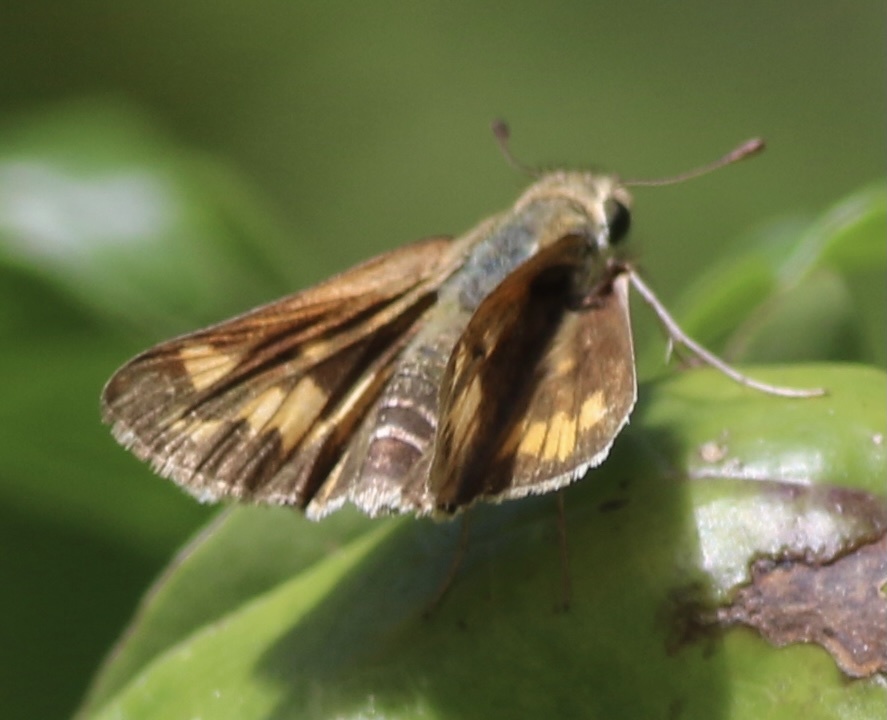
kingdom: Animalia
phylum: Arthropoda
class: Insecta
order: Lepidoptera
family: Hesperiidae
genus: Hylephila
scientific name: Hylephila phyleus
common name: Fiery skipper
